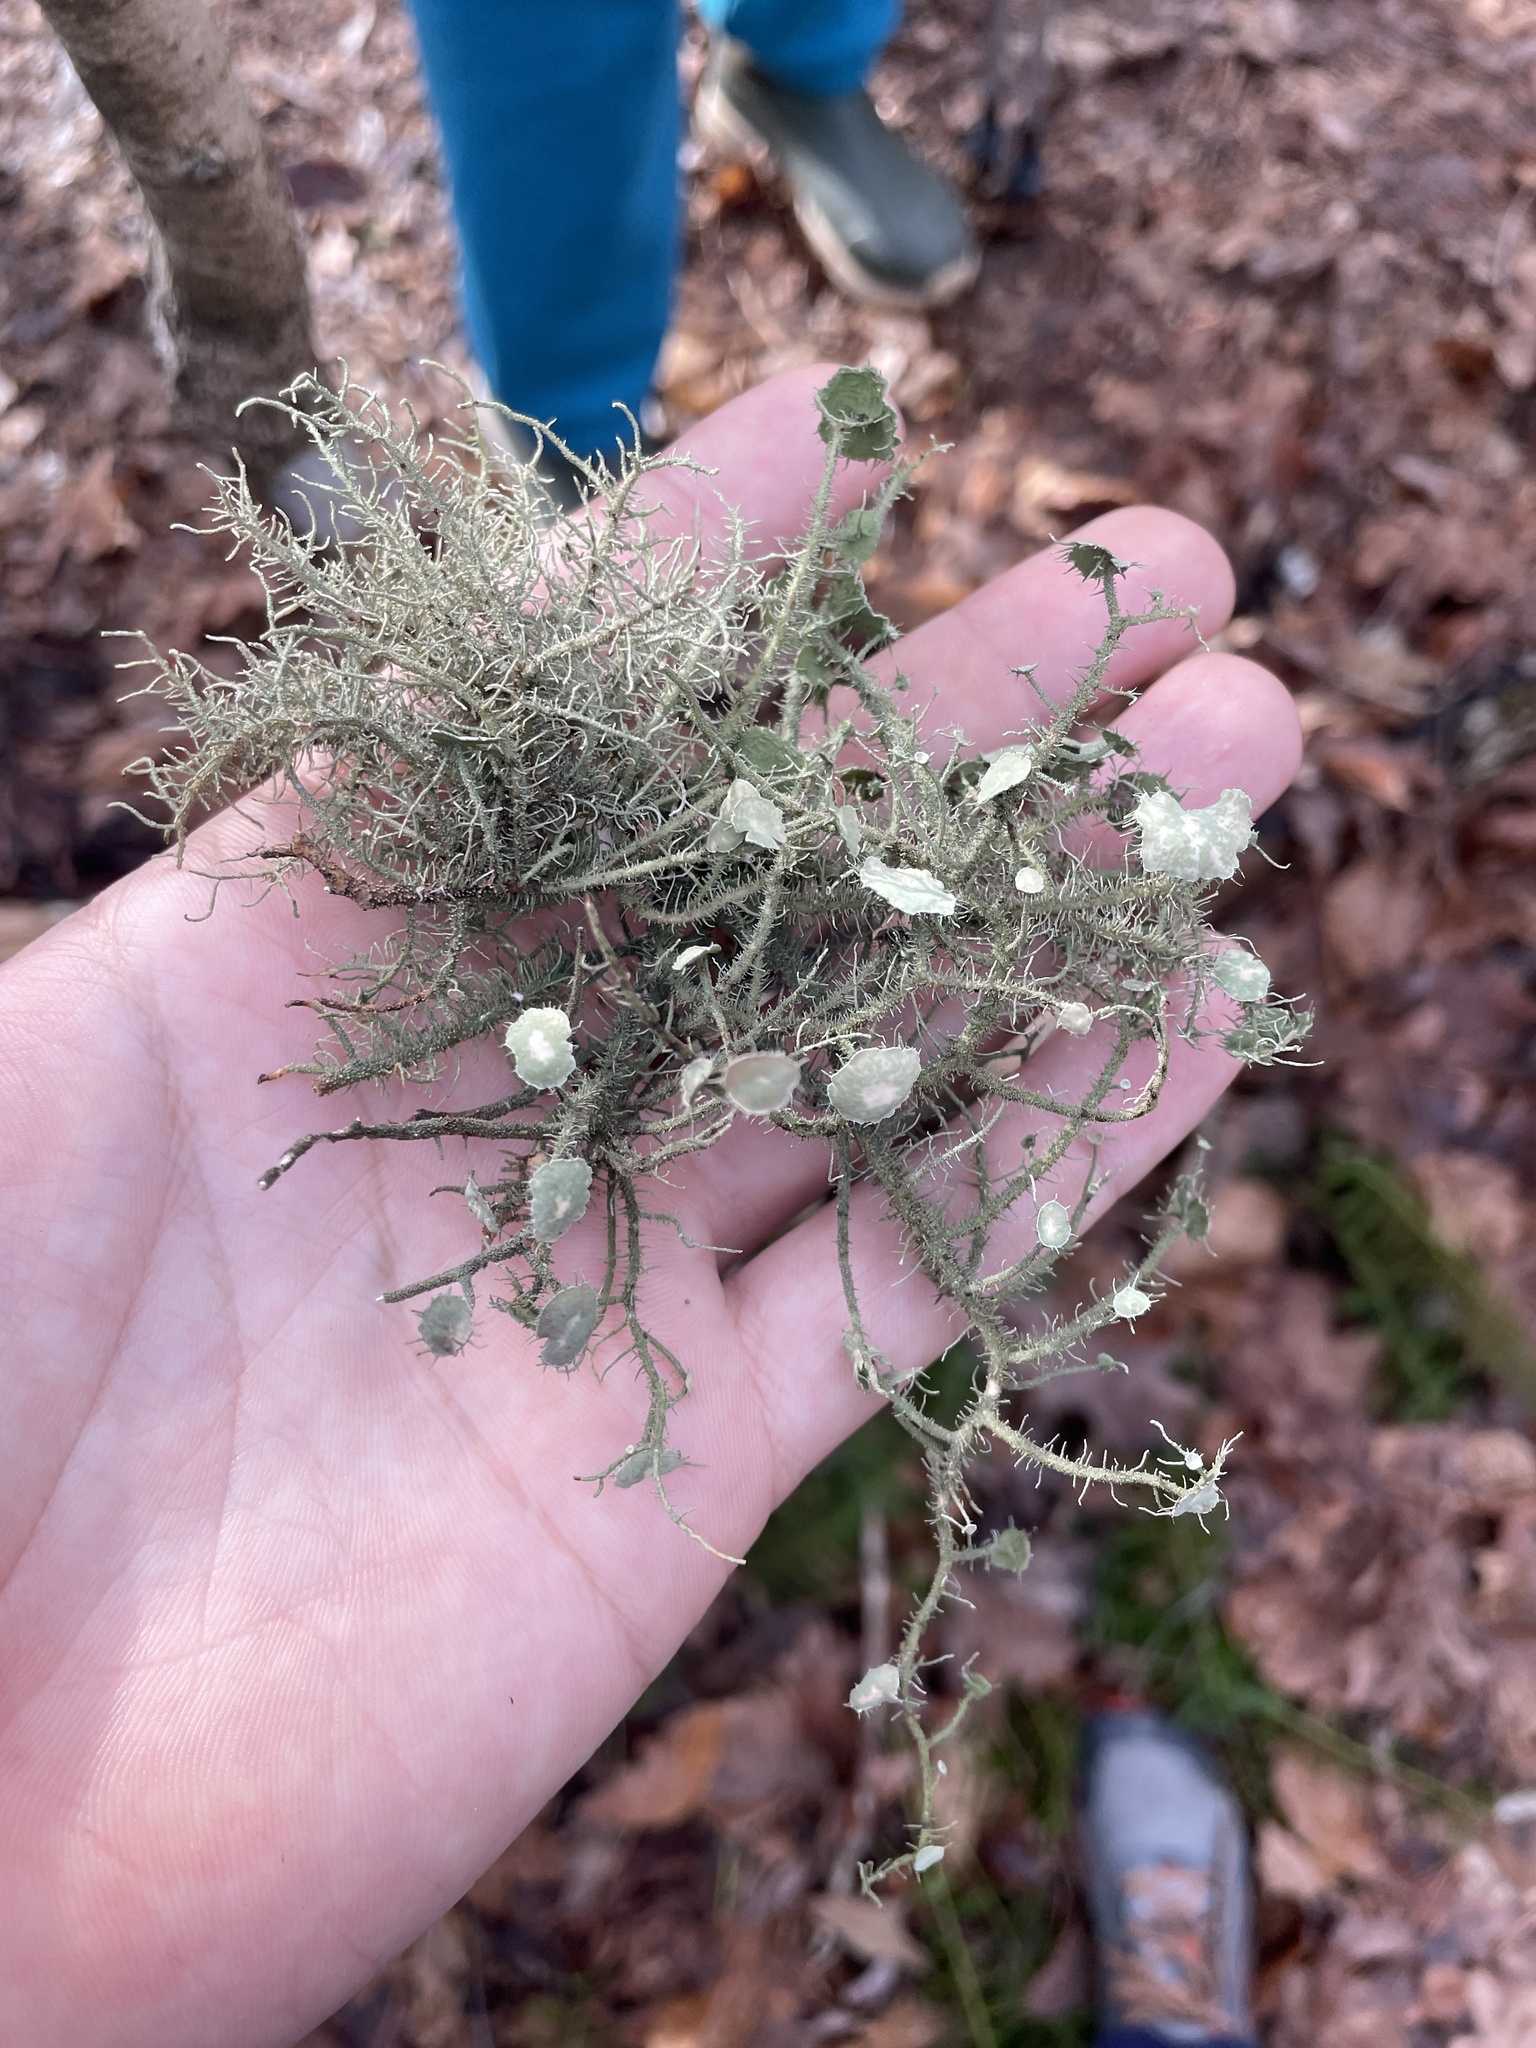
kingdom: Fungi
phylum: Ascomycota
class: Lecanoromycetes
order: Lecanorales
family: Parmeliaceae
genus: Usnea
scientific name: Usnea strigosa
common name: Bushy beard lichen
